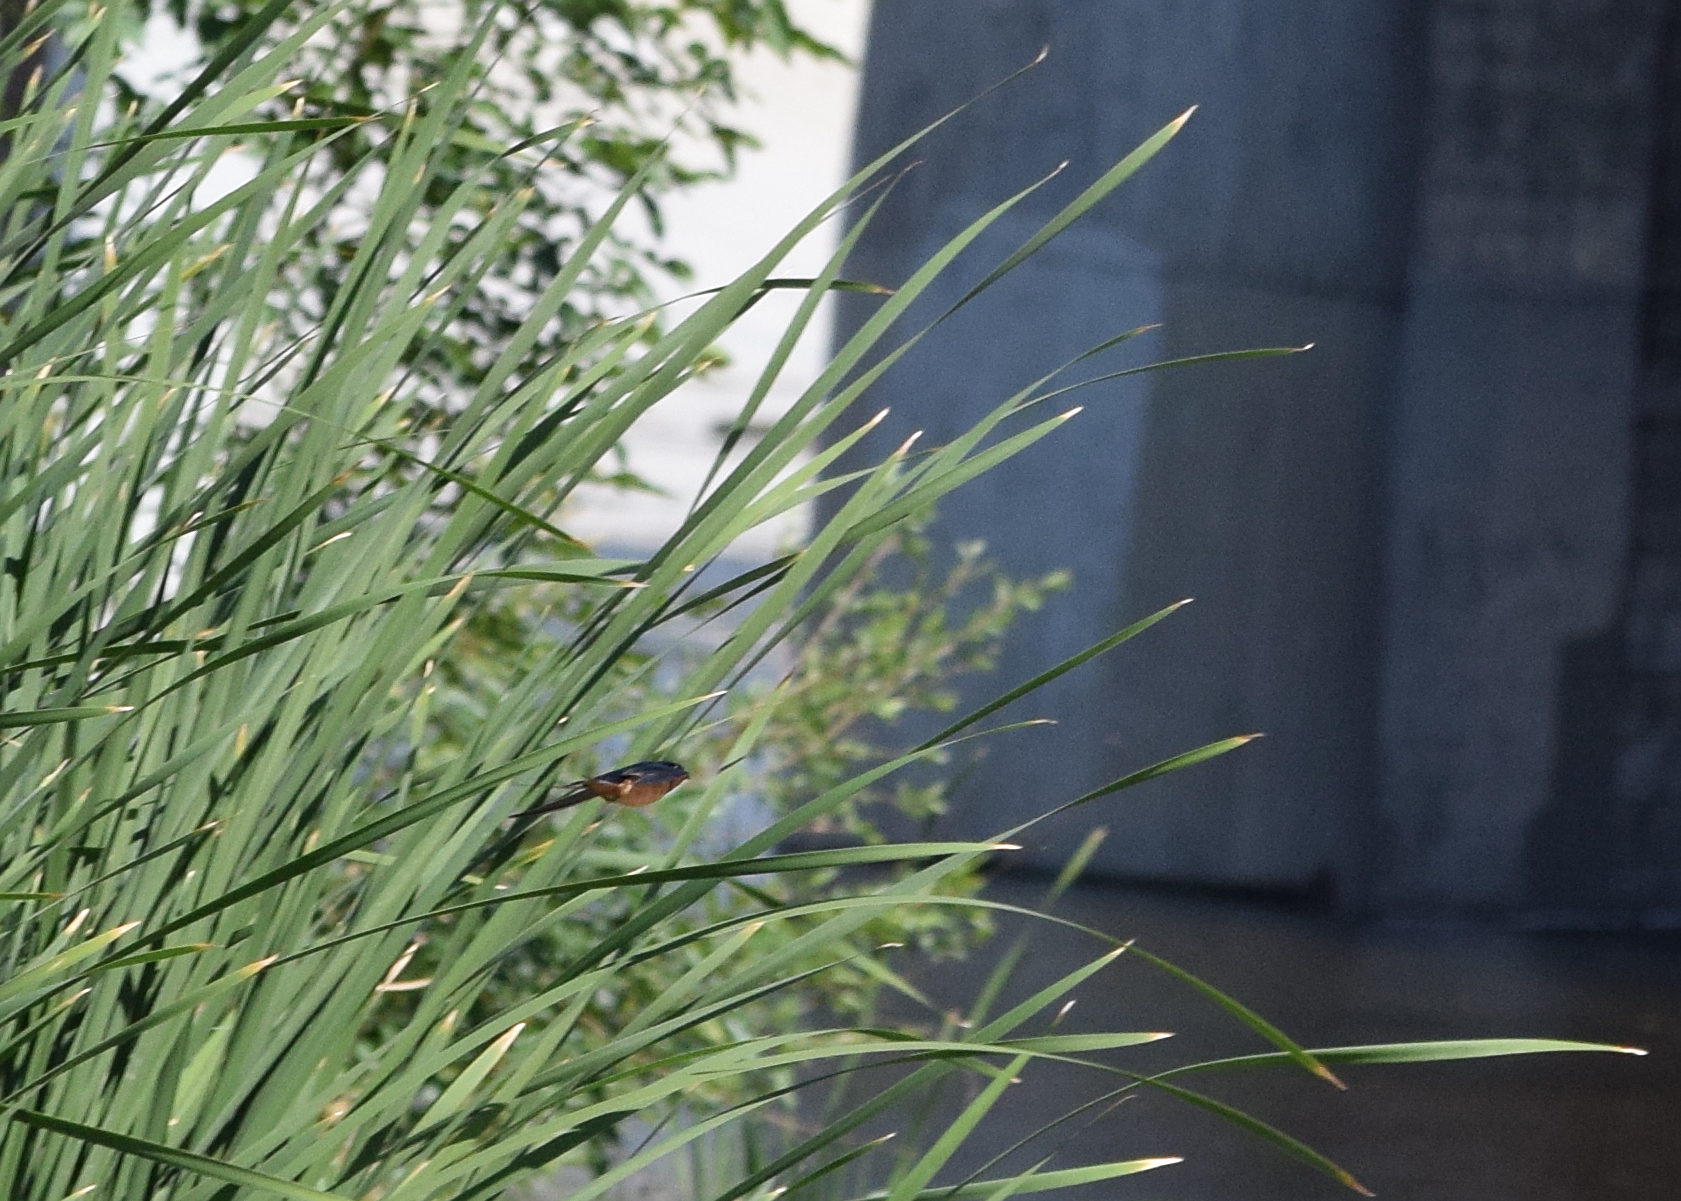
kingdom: Animalia
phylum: Chordata
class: Aves
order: Passeriformes
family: Hirundinidae
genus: Hirundo
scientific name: Hirundo rustica
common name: Barn swallow
